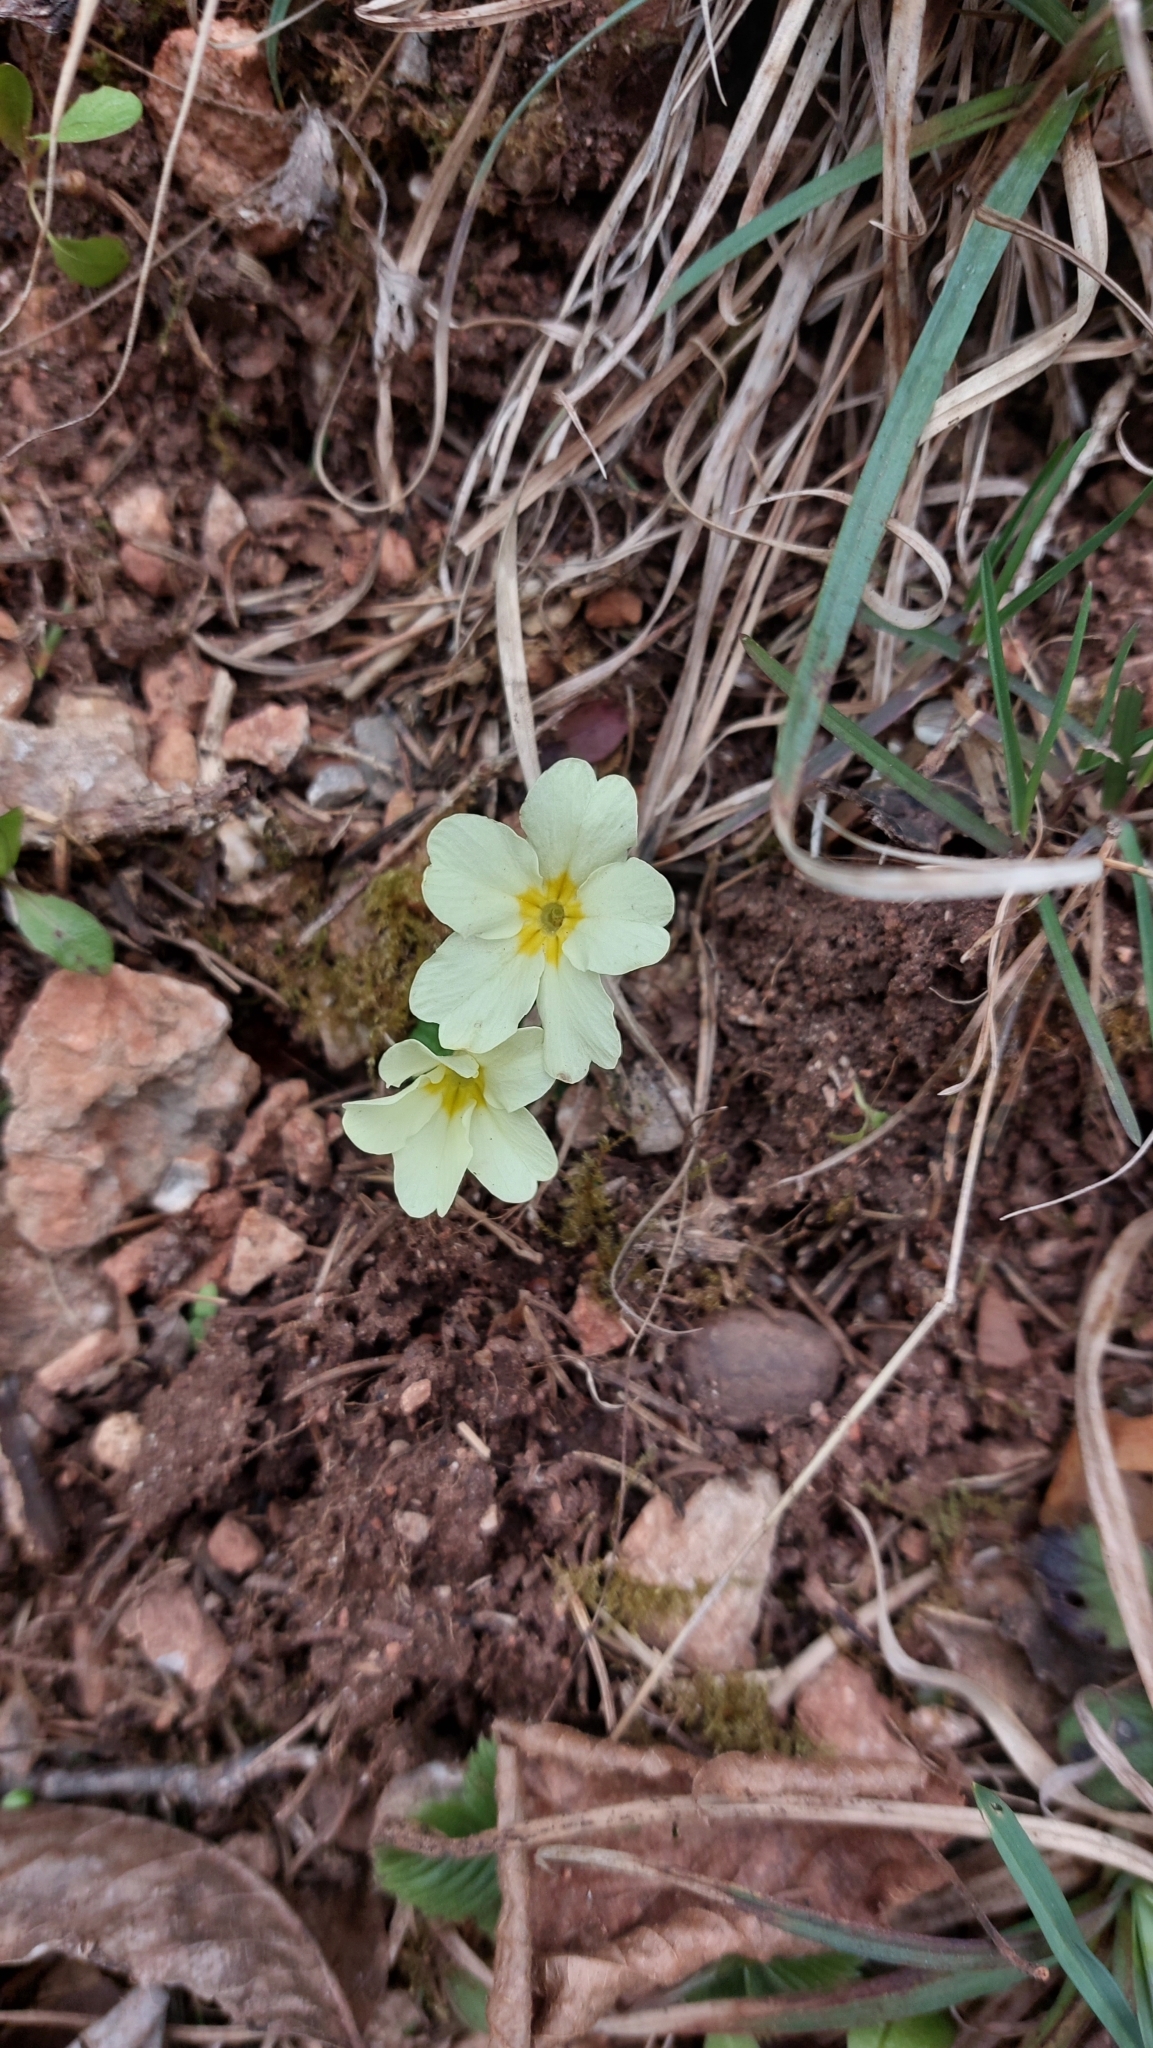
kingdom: Plantae
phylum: Tracheophyta
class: Magnoliopsida
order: Ericales
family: Primulaceae
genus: Primula
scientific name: Primula vulgaris
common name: Primrose
